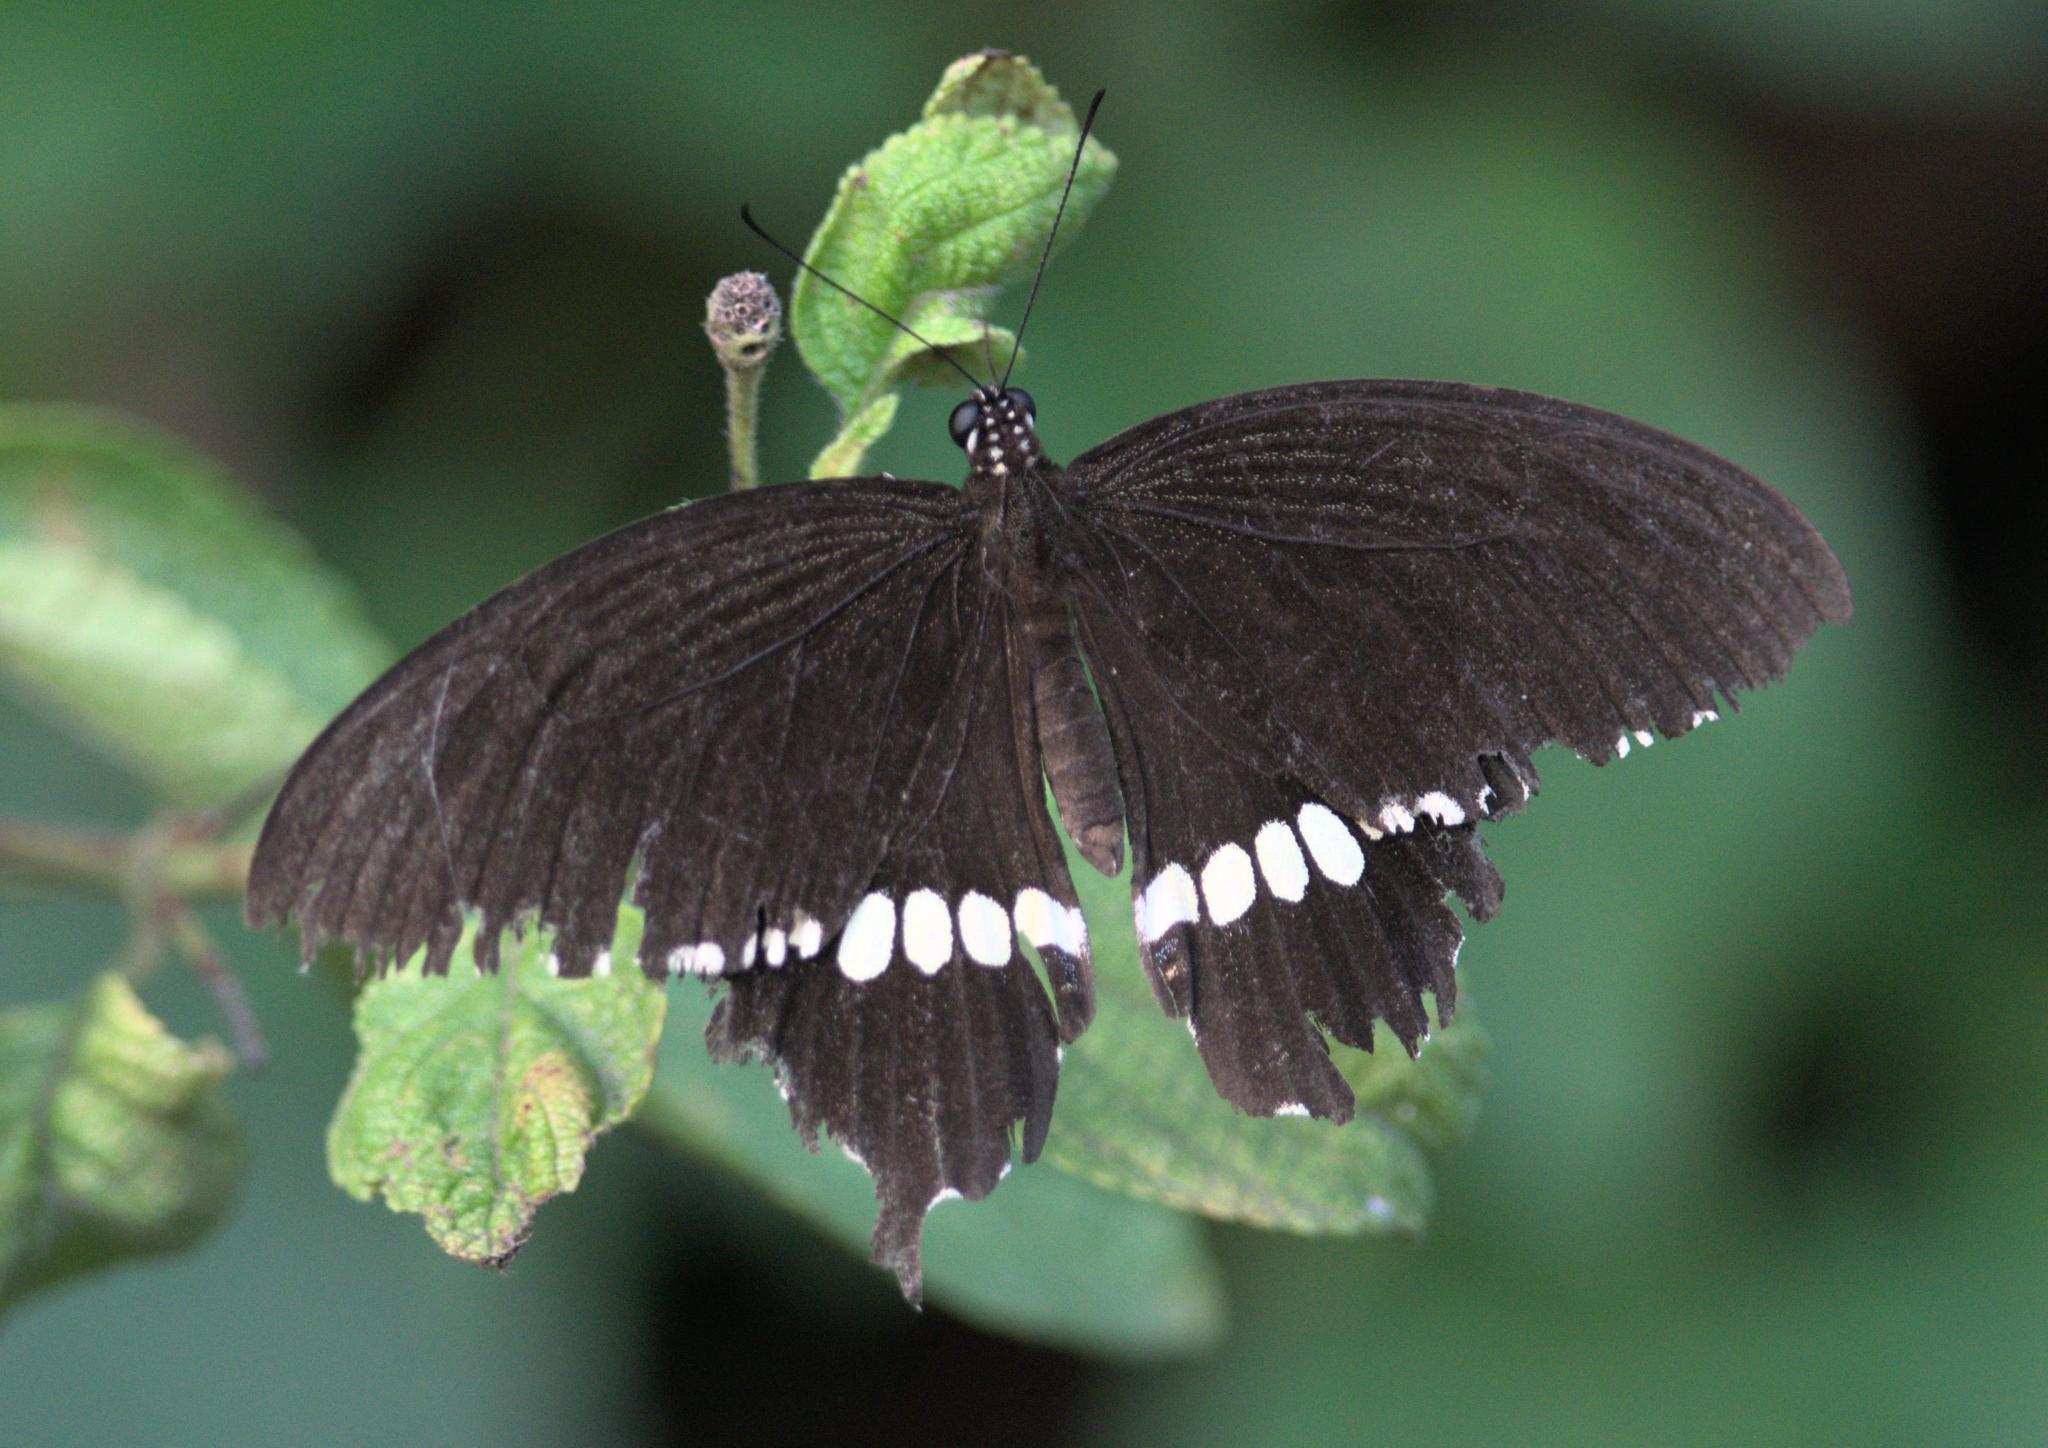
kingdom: Animalia
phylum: Arthropoda
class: Insecta
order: Lepidoptera
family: Papilionidae
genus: Papilio
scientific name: Papilio polytes
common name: Common mormon
